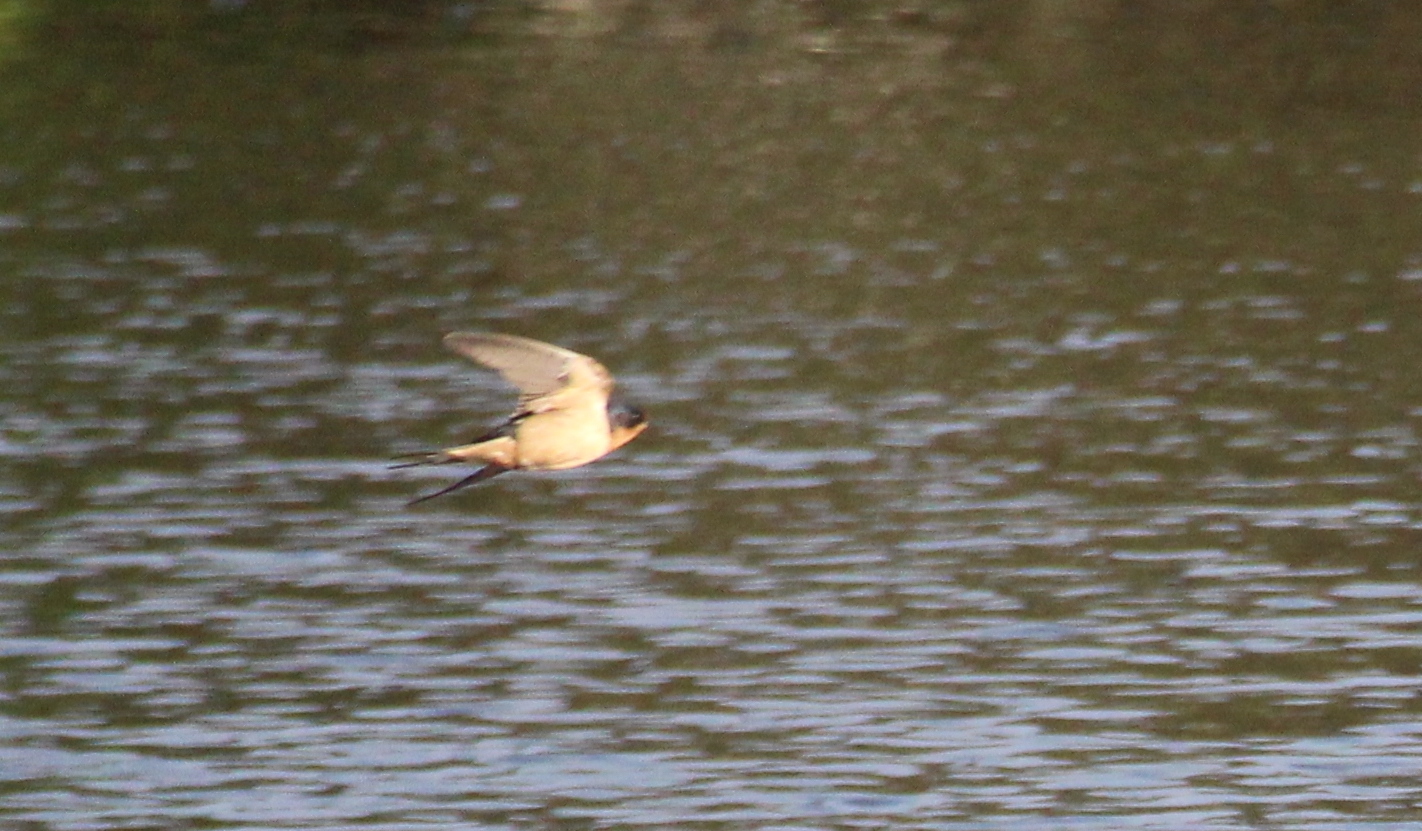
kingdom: Animalia
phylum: Chordata
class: Aves
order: Passeriformes
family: Hirundinidae
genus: Hirundo
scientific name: Hirundo rustica
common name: Barn swallow
